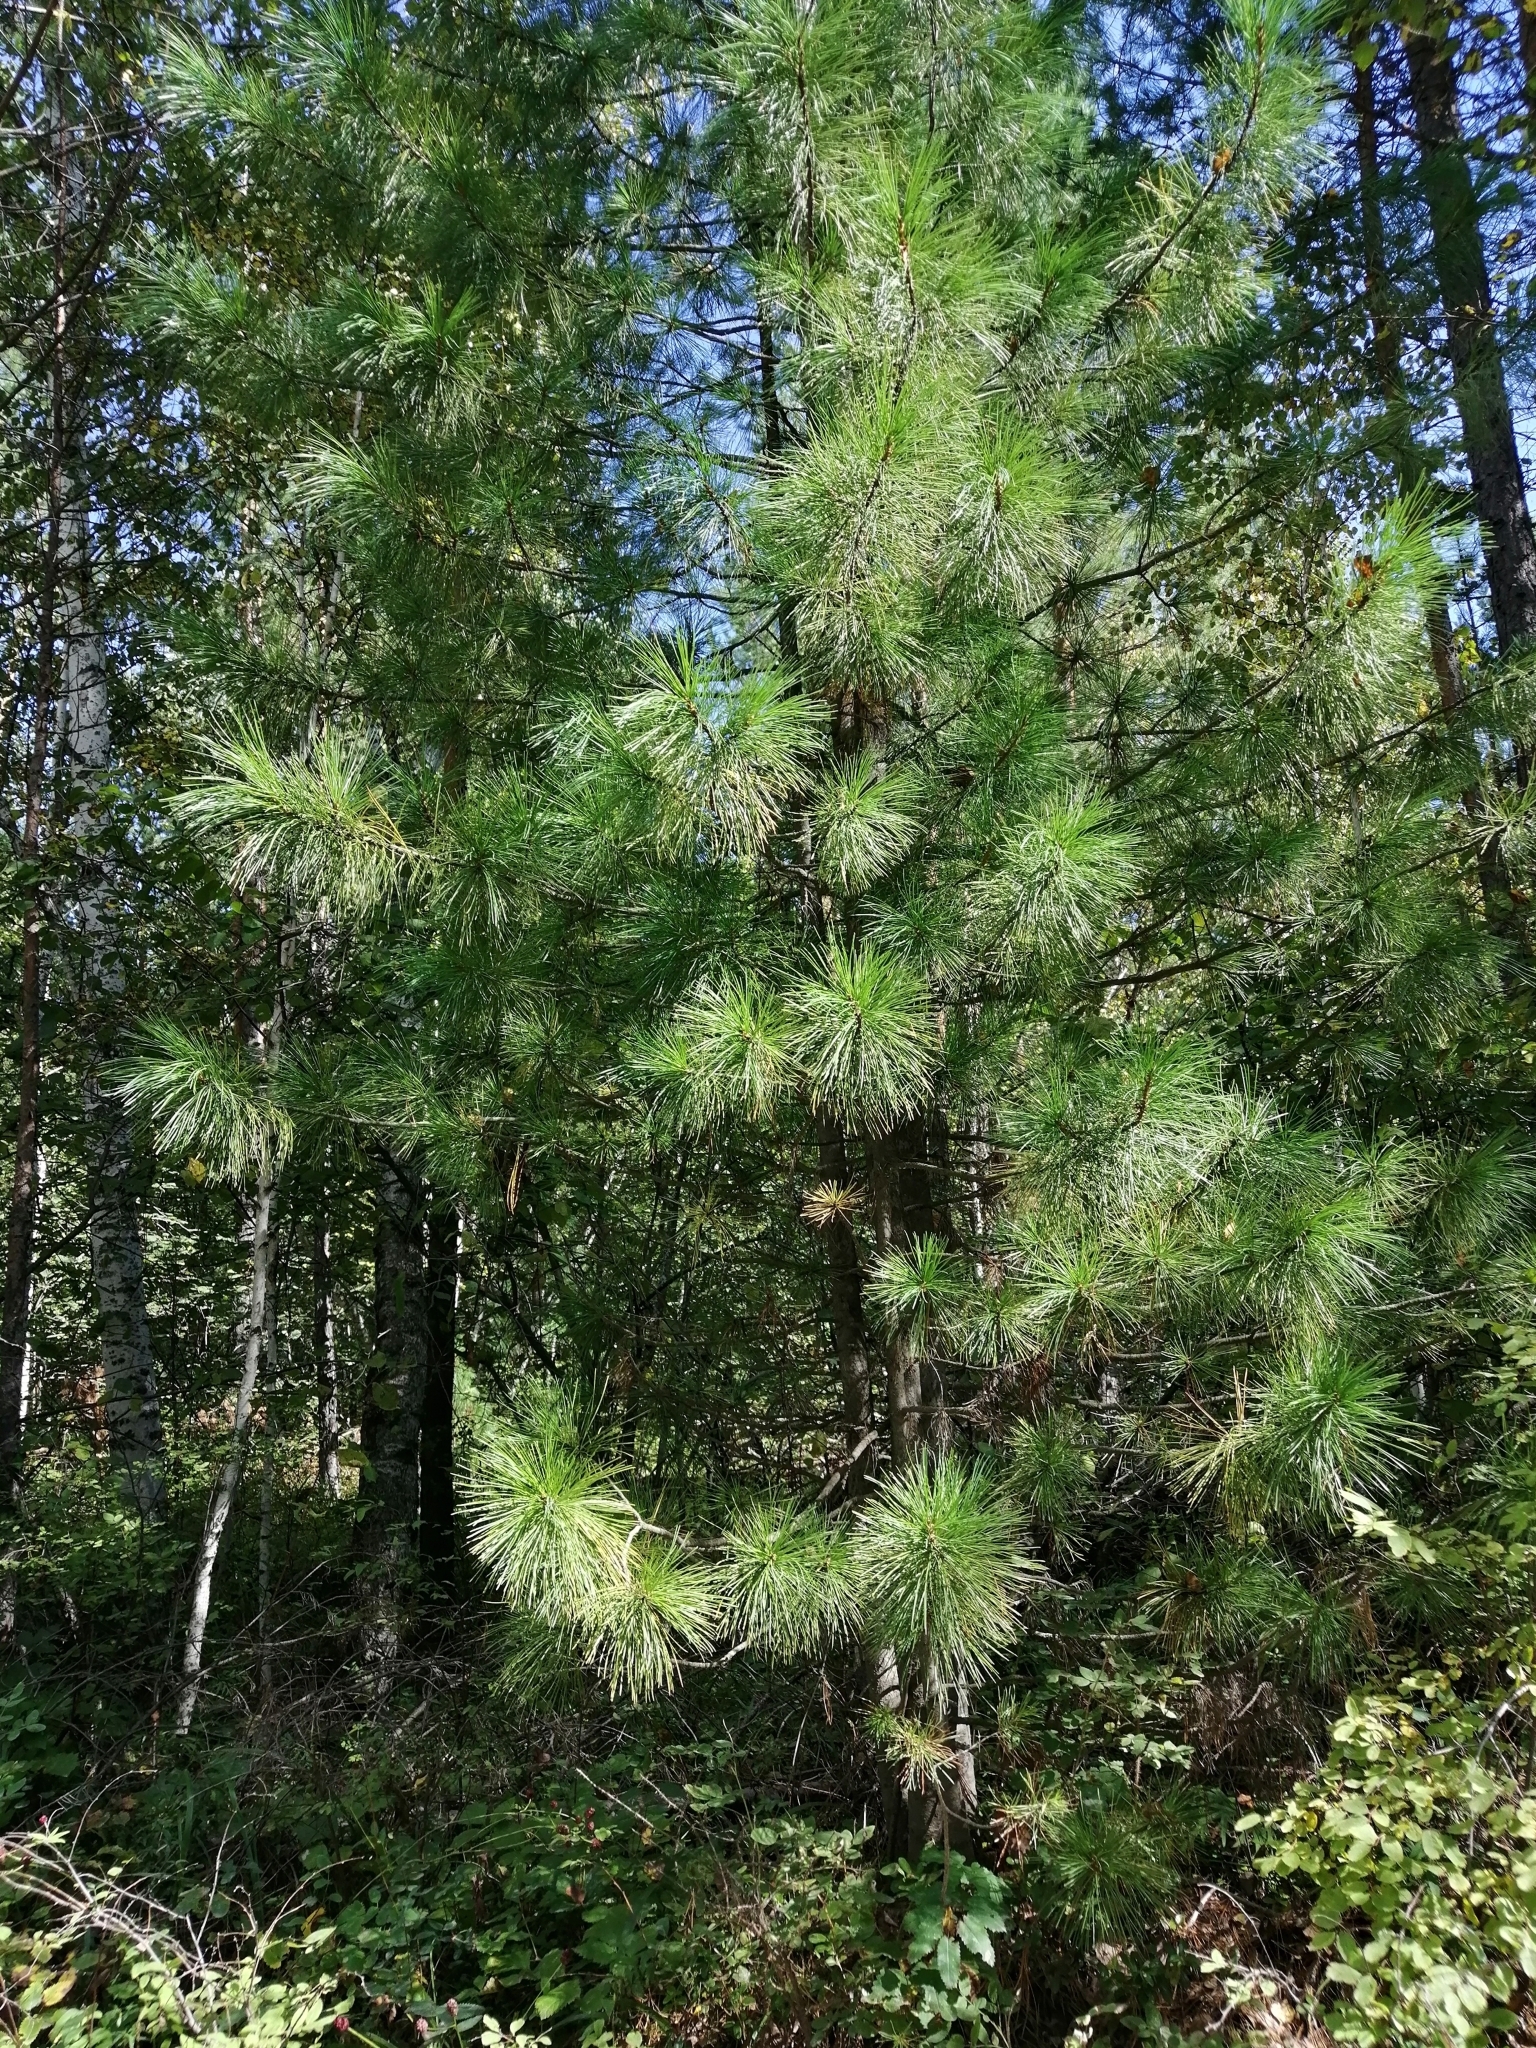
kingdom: Plantae
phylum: Tracheophyta
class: Pinopsida
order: Pinales
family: Pinaceae
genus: Pinus
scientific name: Pinus sibirica
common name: Siberian pine
